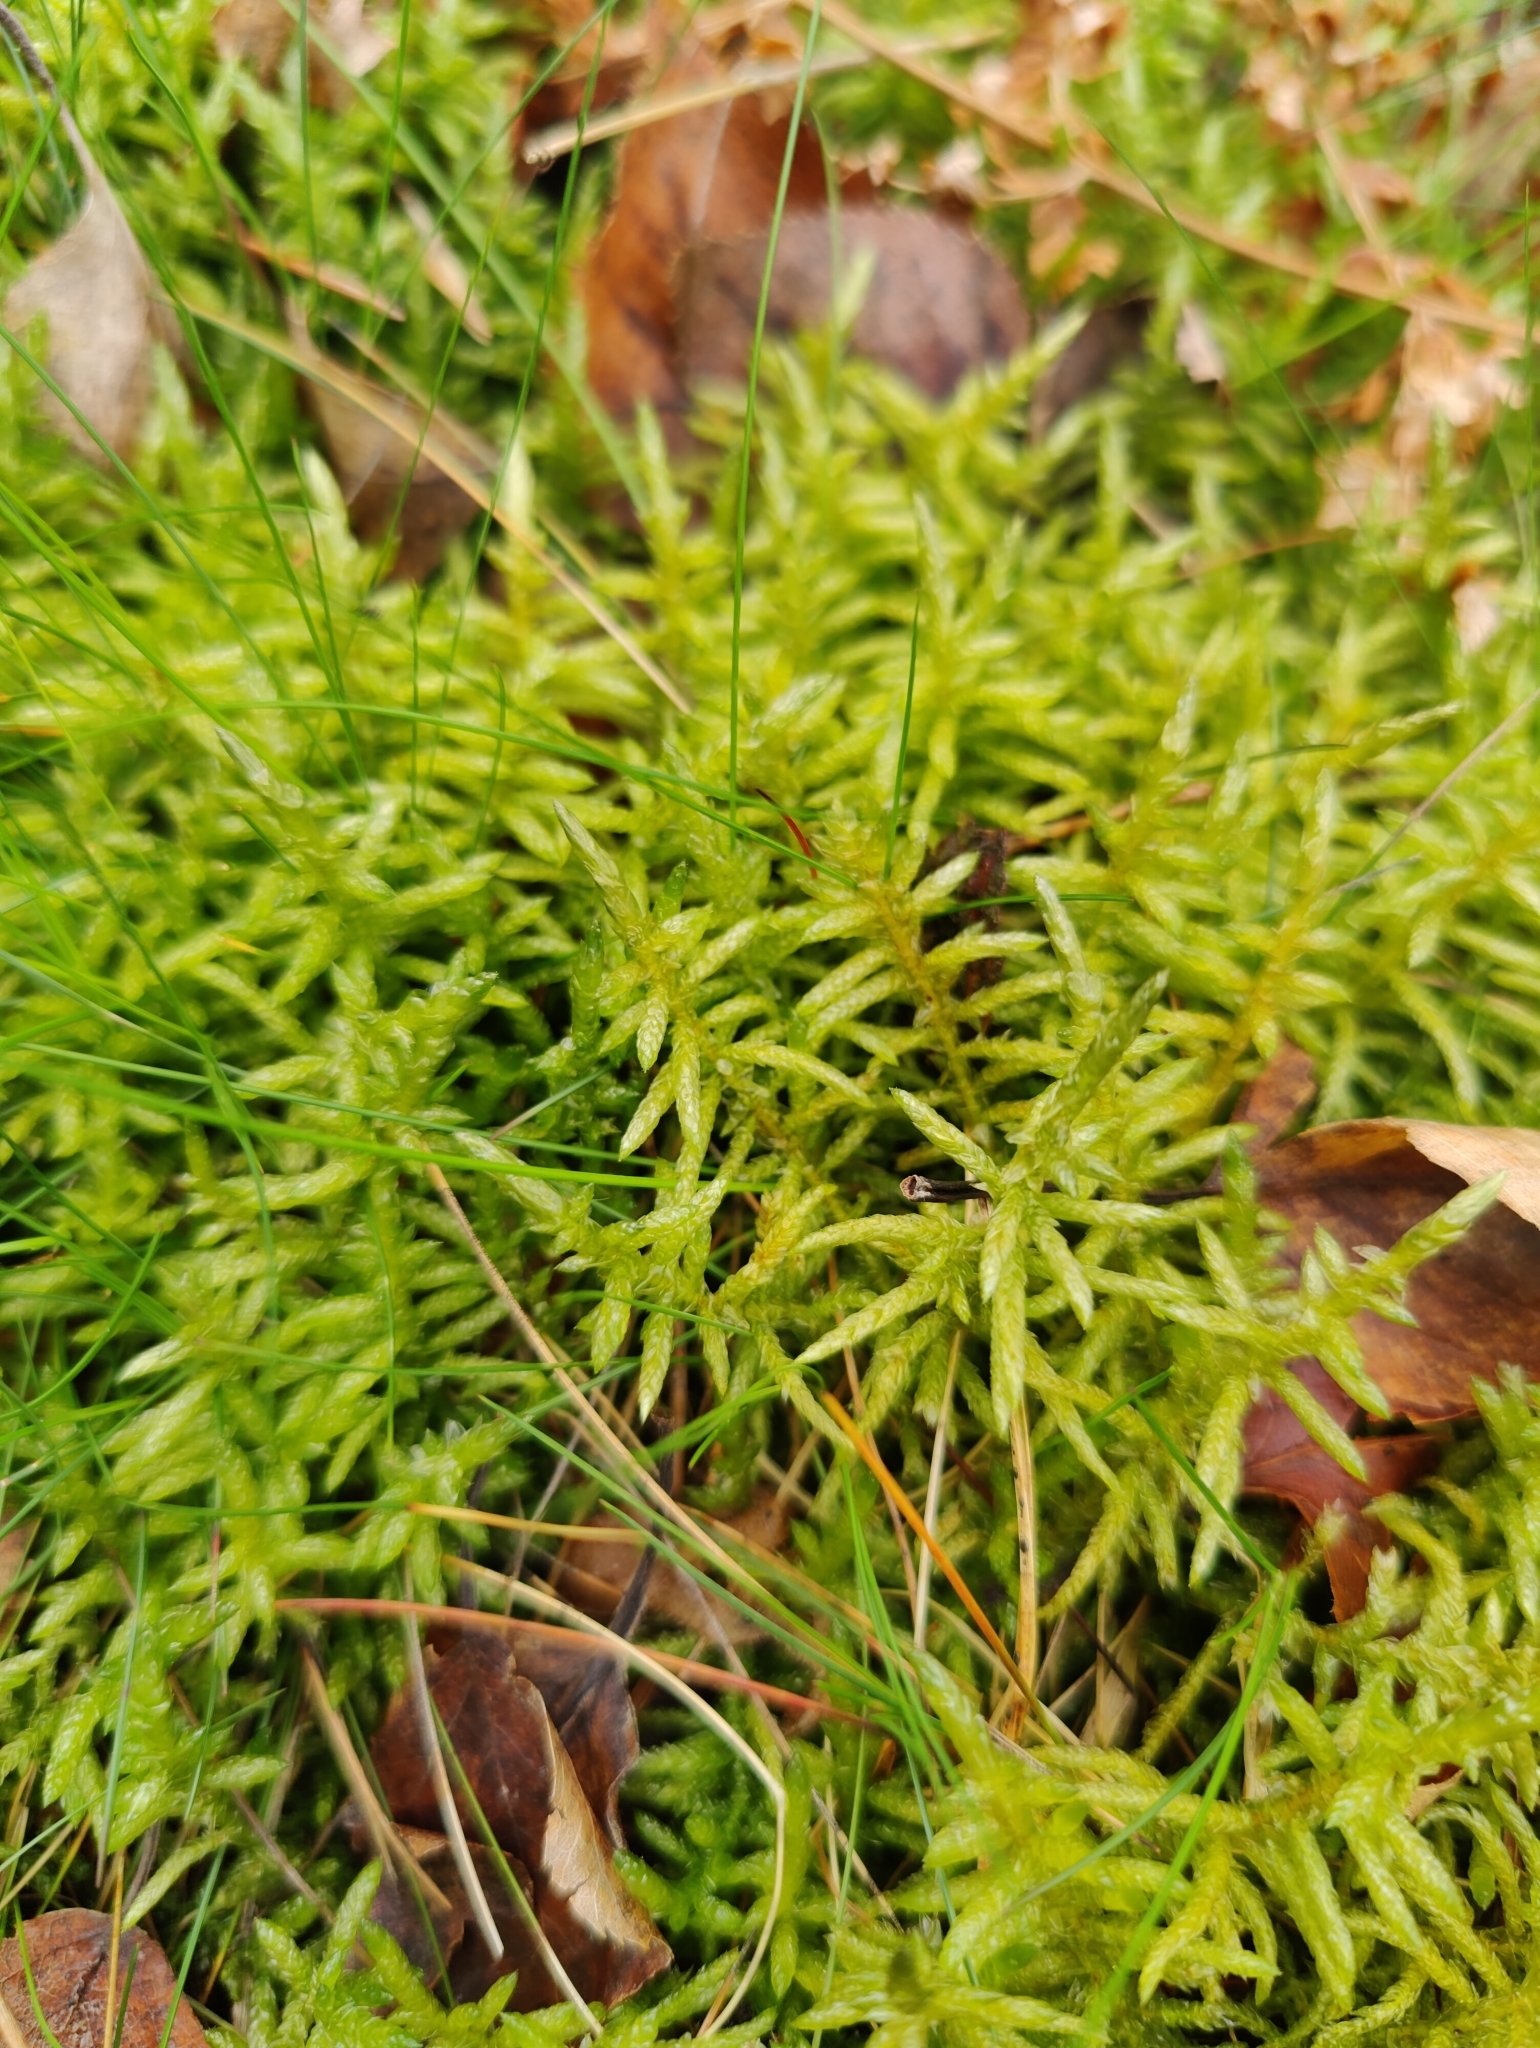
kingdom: Plantae
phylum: Bryophyta
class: Bryopsida
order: Hypnales
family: Brachytheciaceae
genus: Pseudoscleropodium
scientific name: Pseudoscleropodium purum
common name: Neat feather-moss
